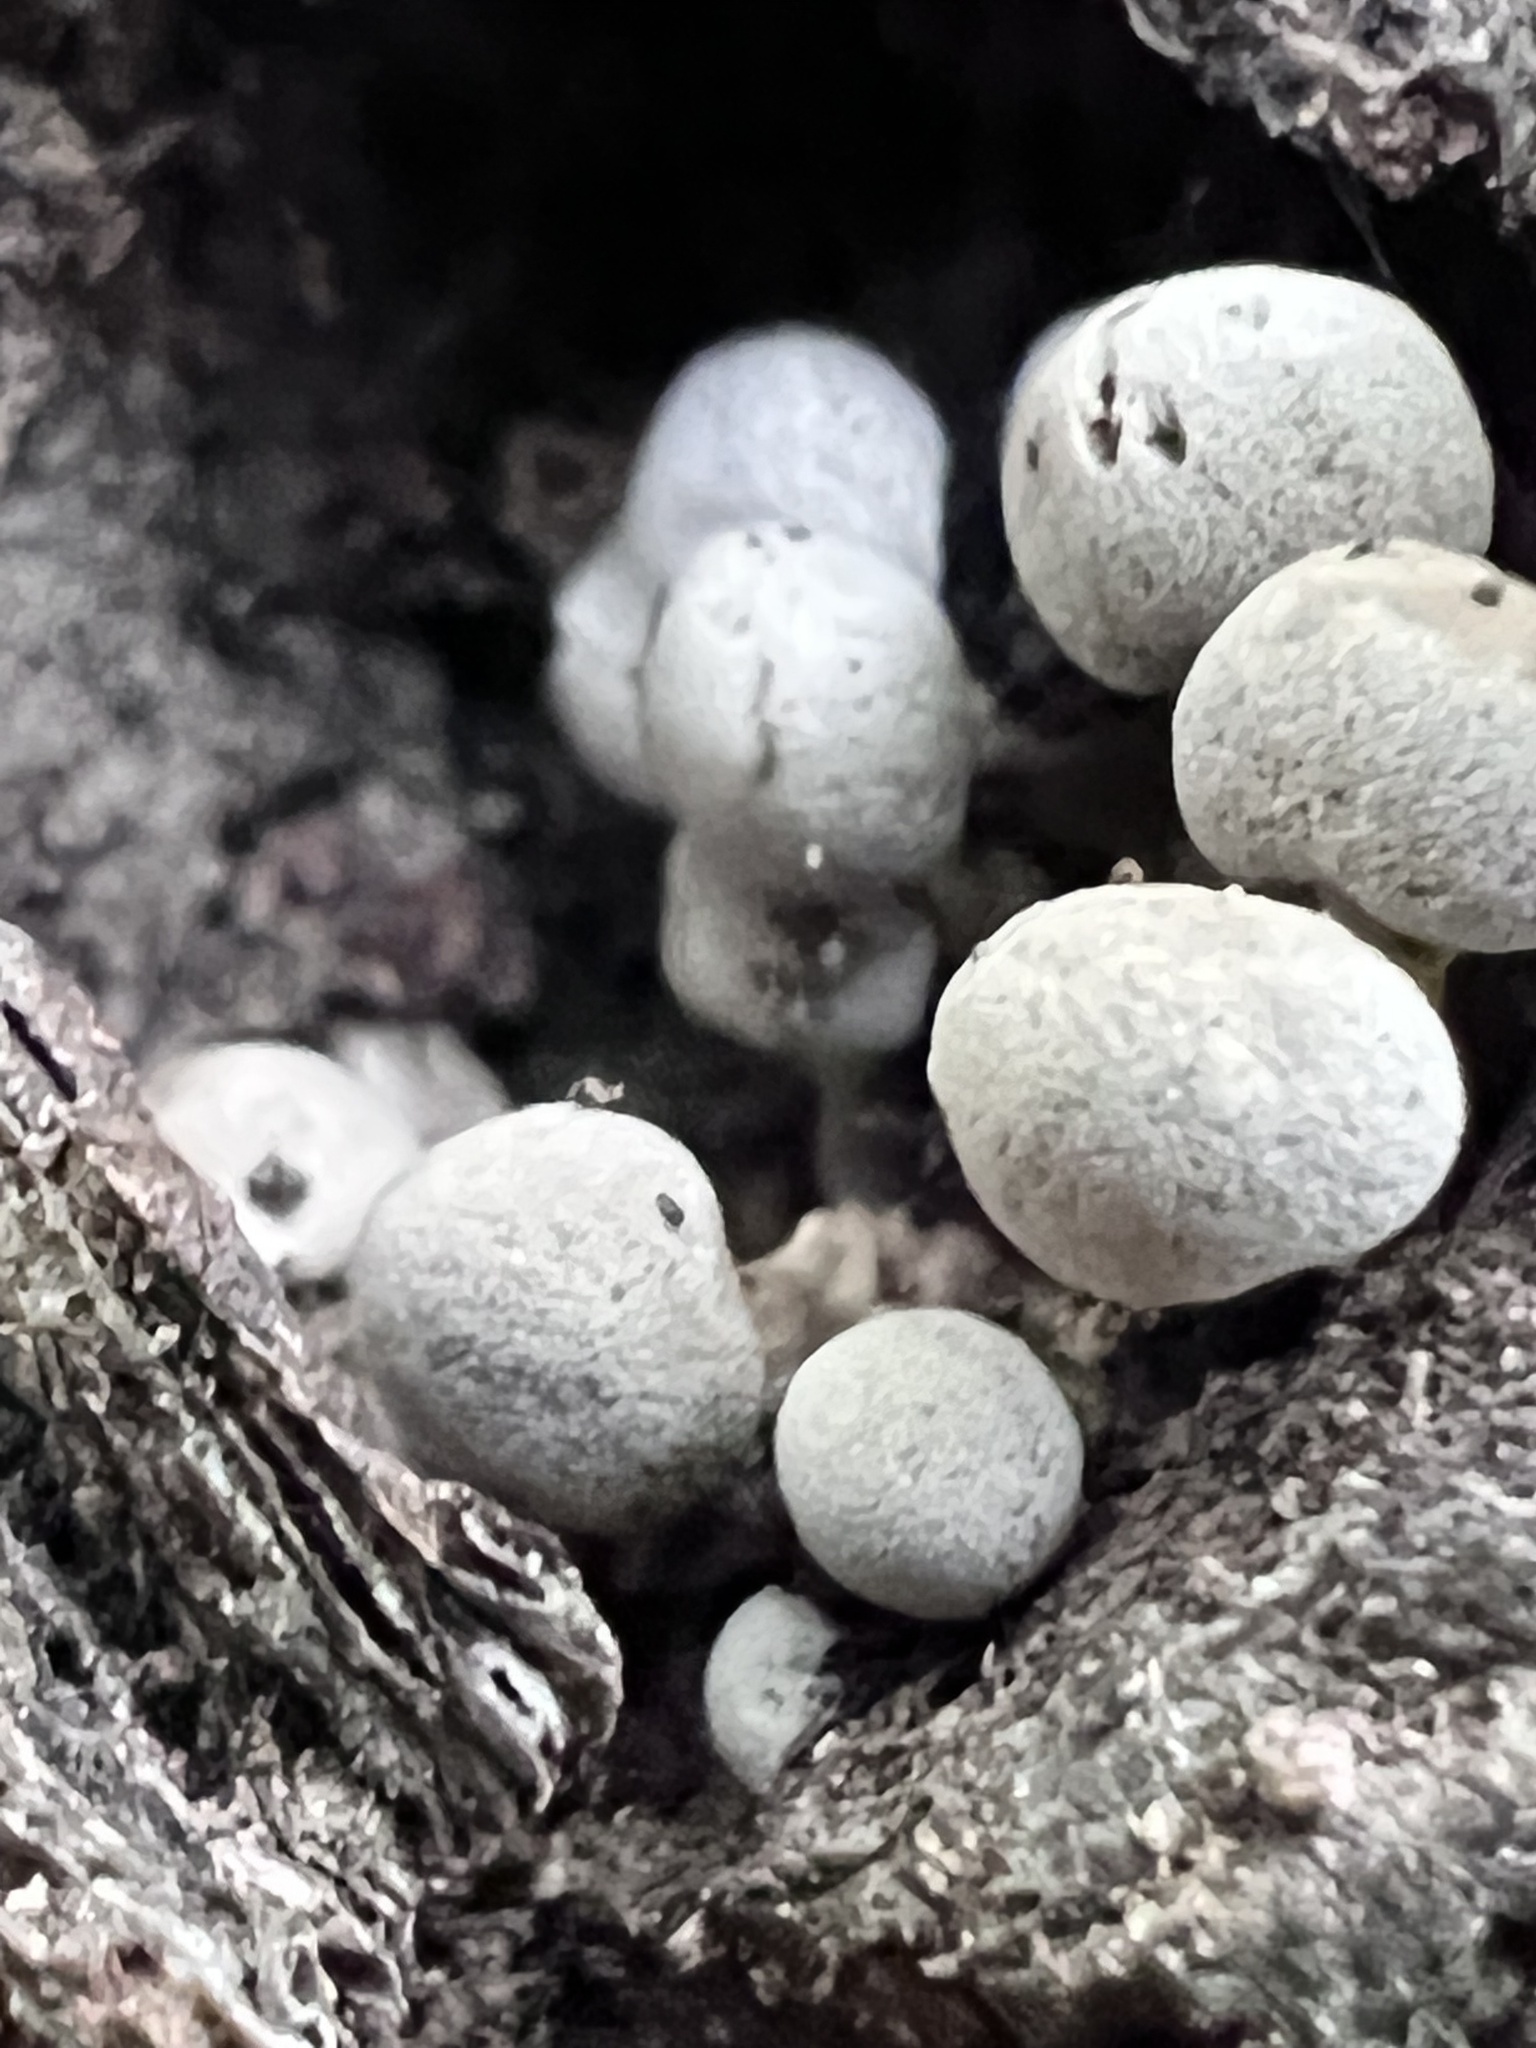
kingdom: Fungi
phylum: Basidiomycota
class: Atractiellomycetes
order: Atractiellales
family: Phleogenaceae
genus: Phleogena
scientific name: Phleogena faginea
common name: Fenugreek stalkball
